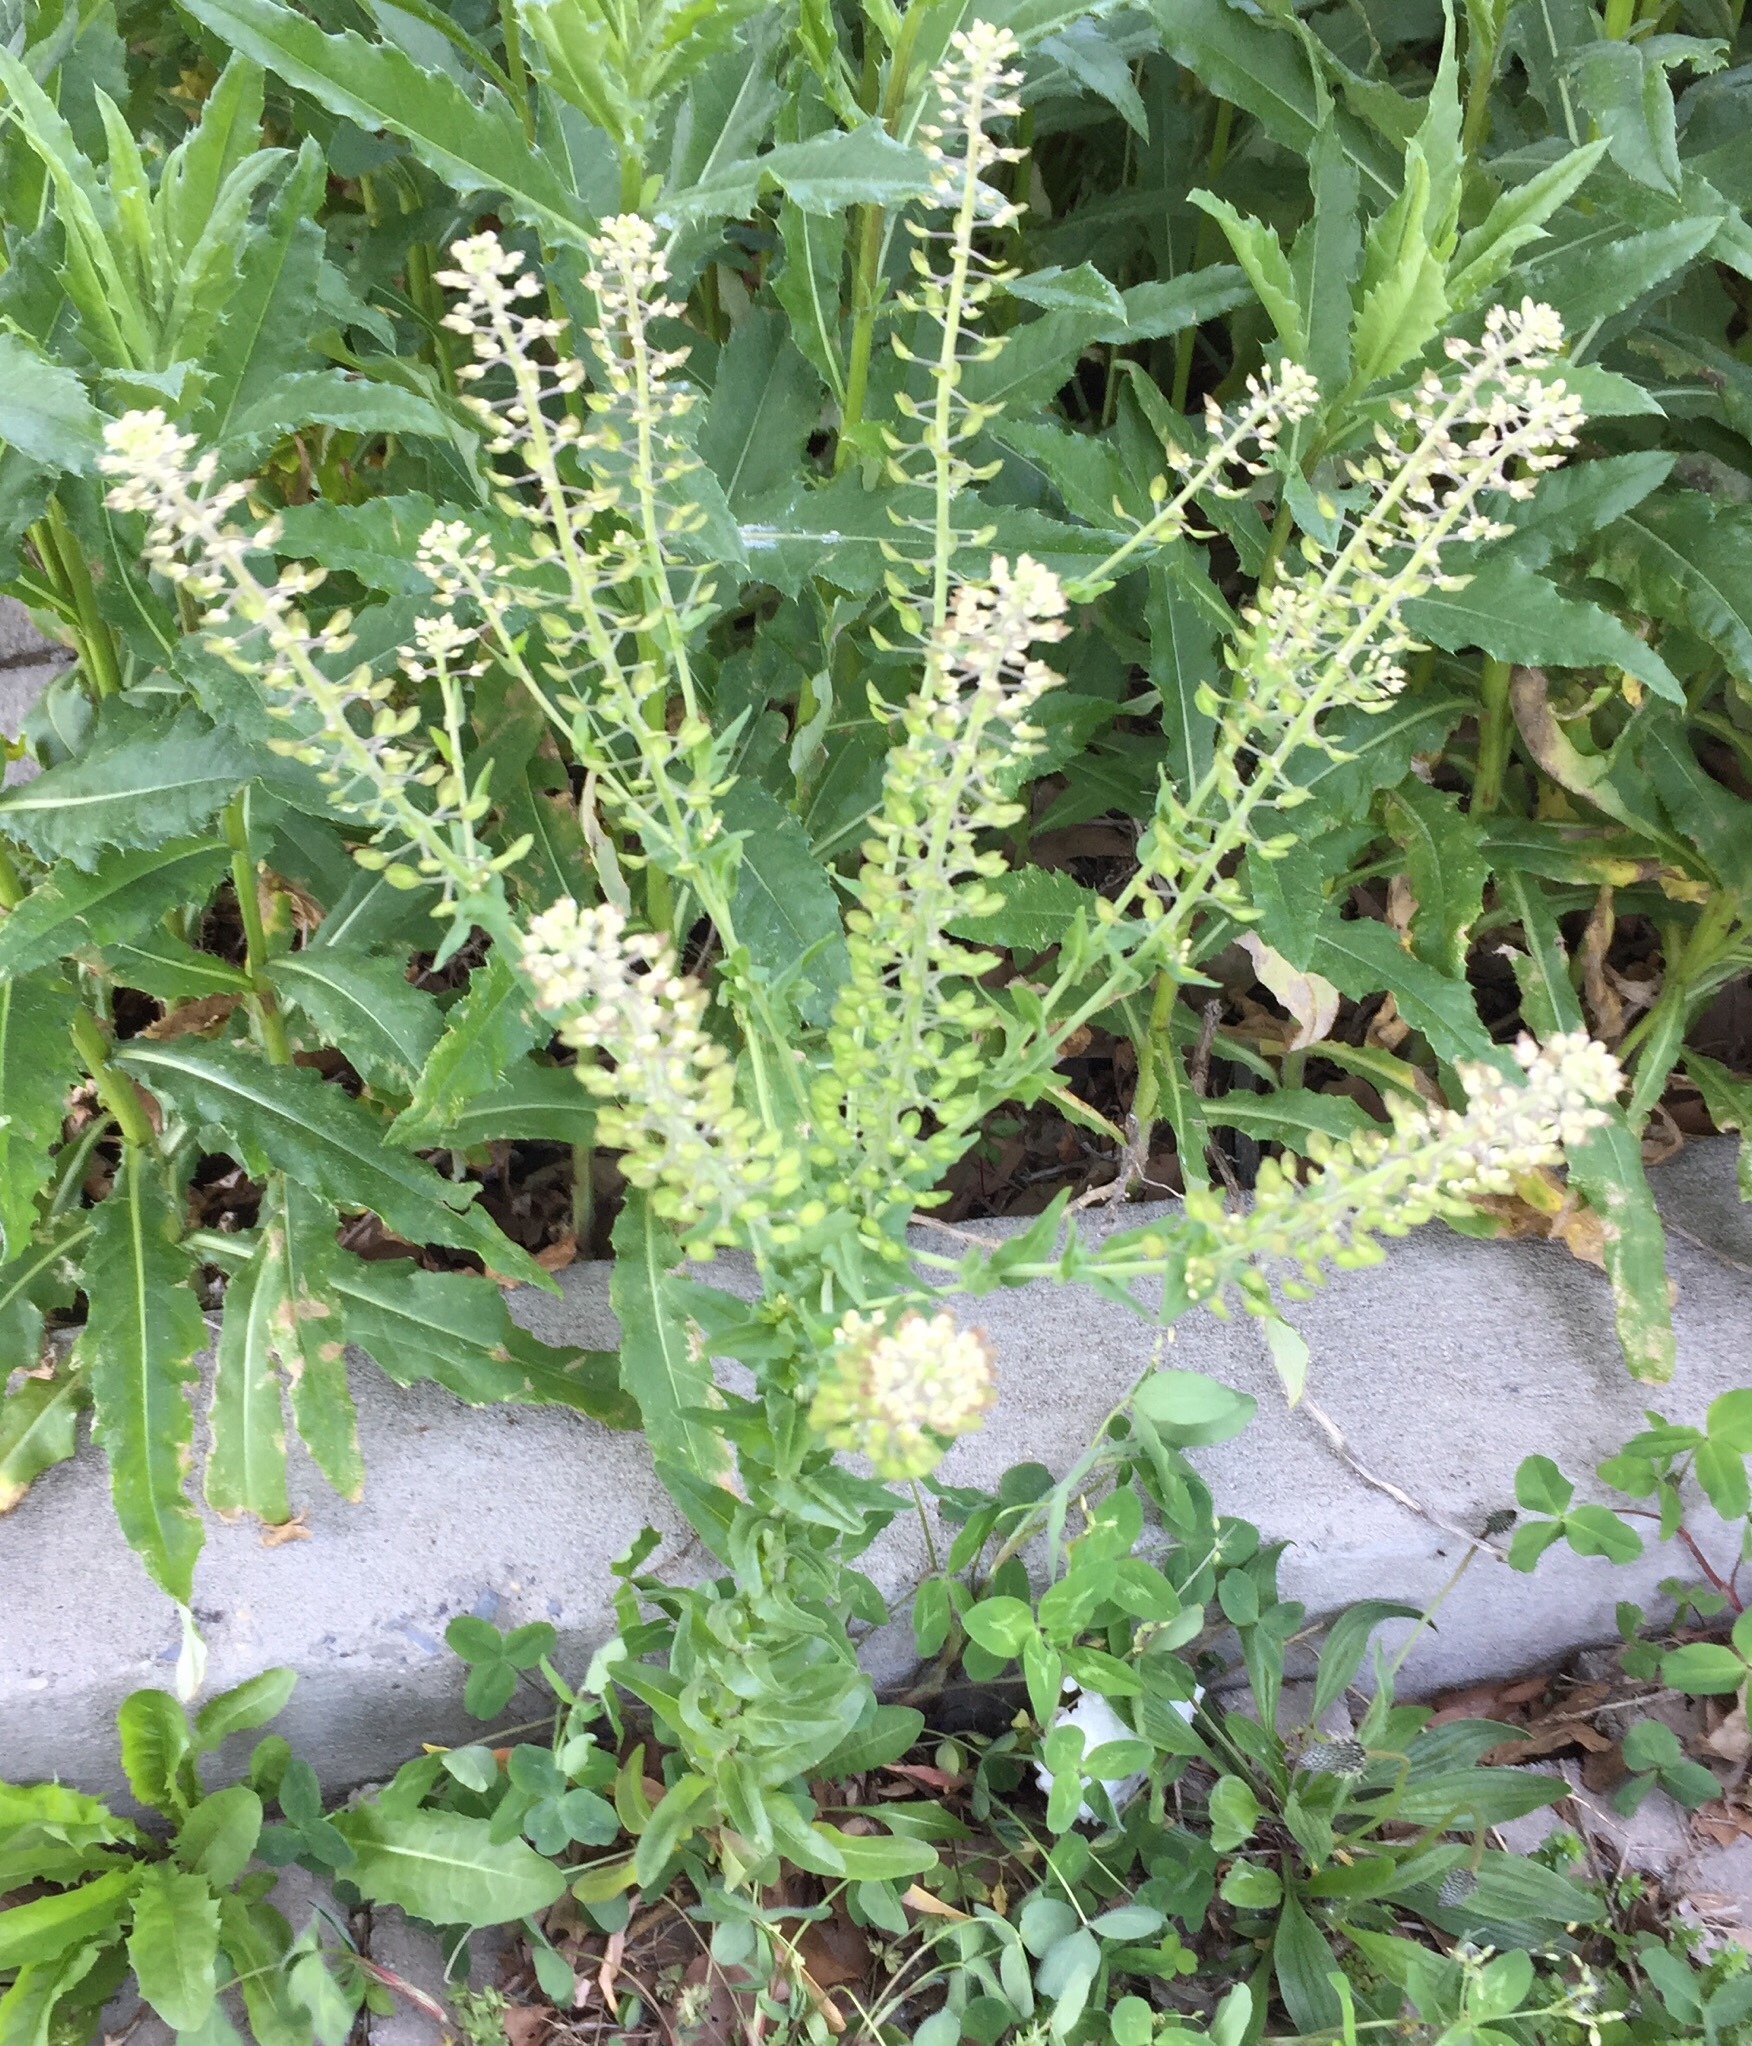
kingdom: Plantae
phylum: Tracheophyta
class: Magnoliopsida
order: Brassicales
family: Brassicaceae
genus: Lepidium
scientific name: Lepidium campestre
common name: Field pepperwort
